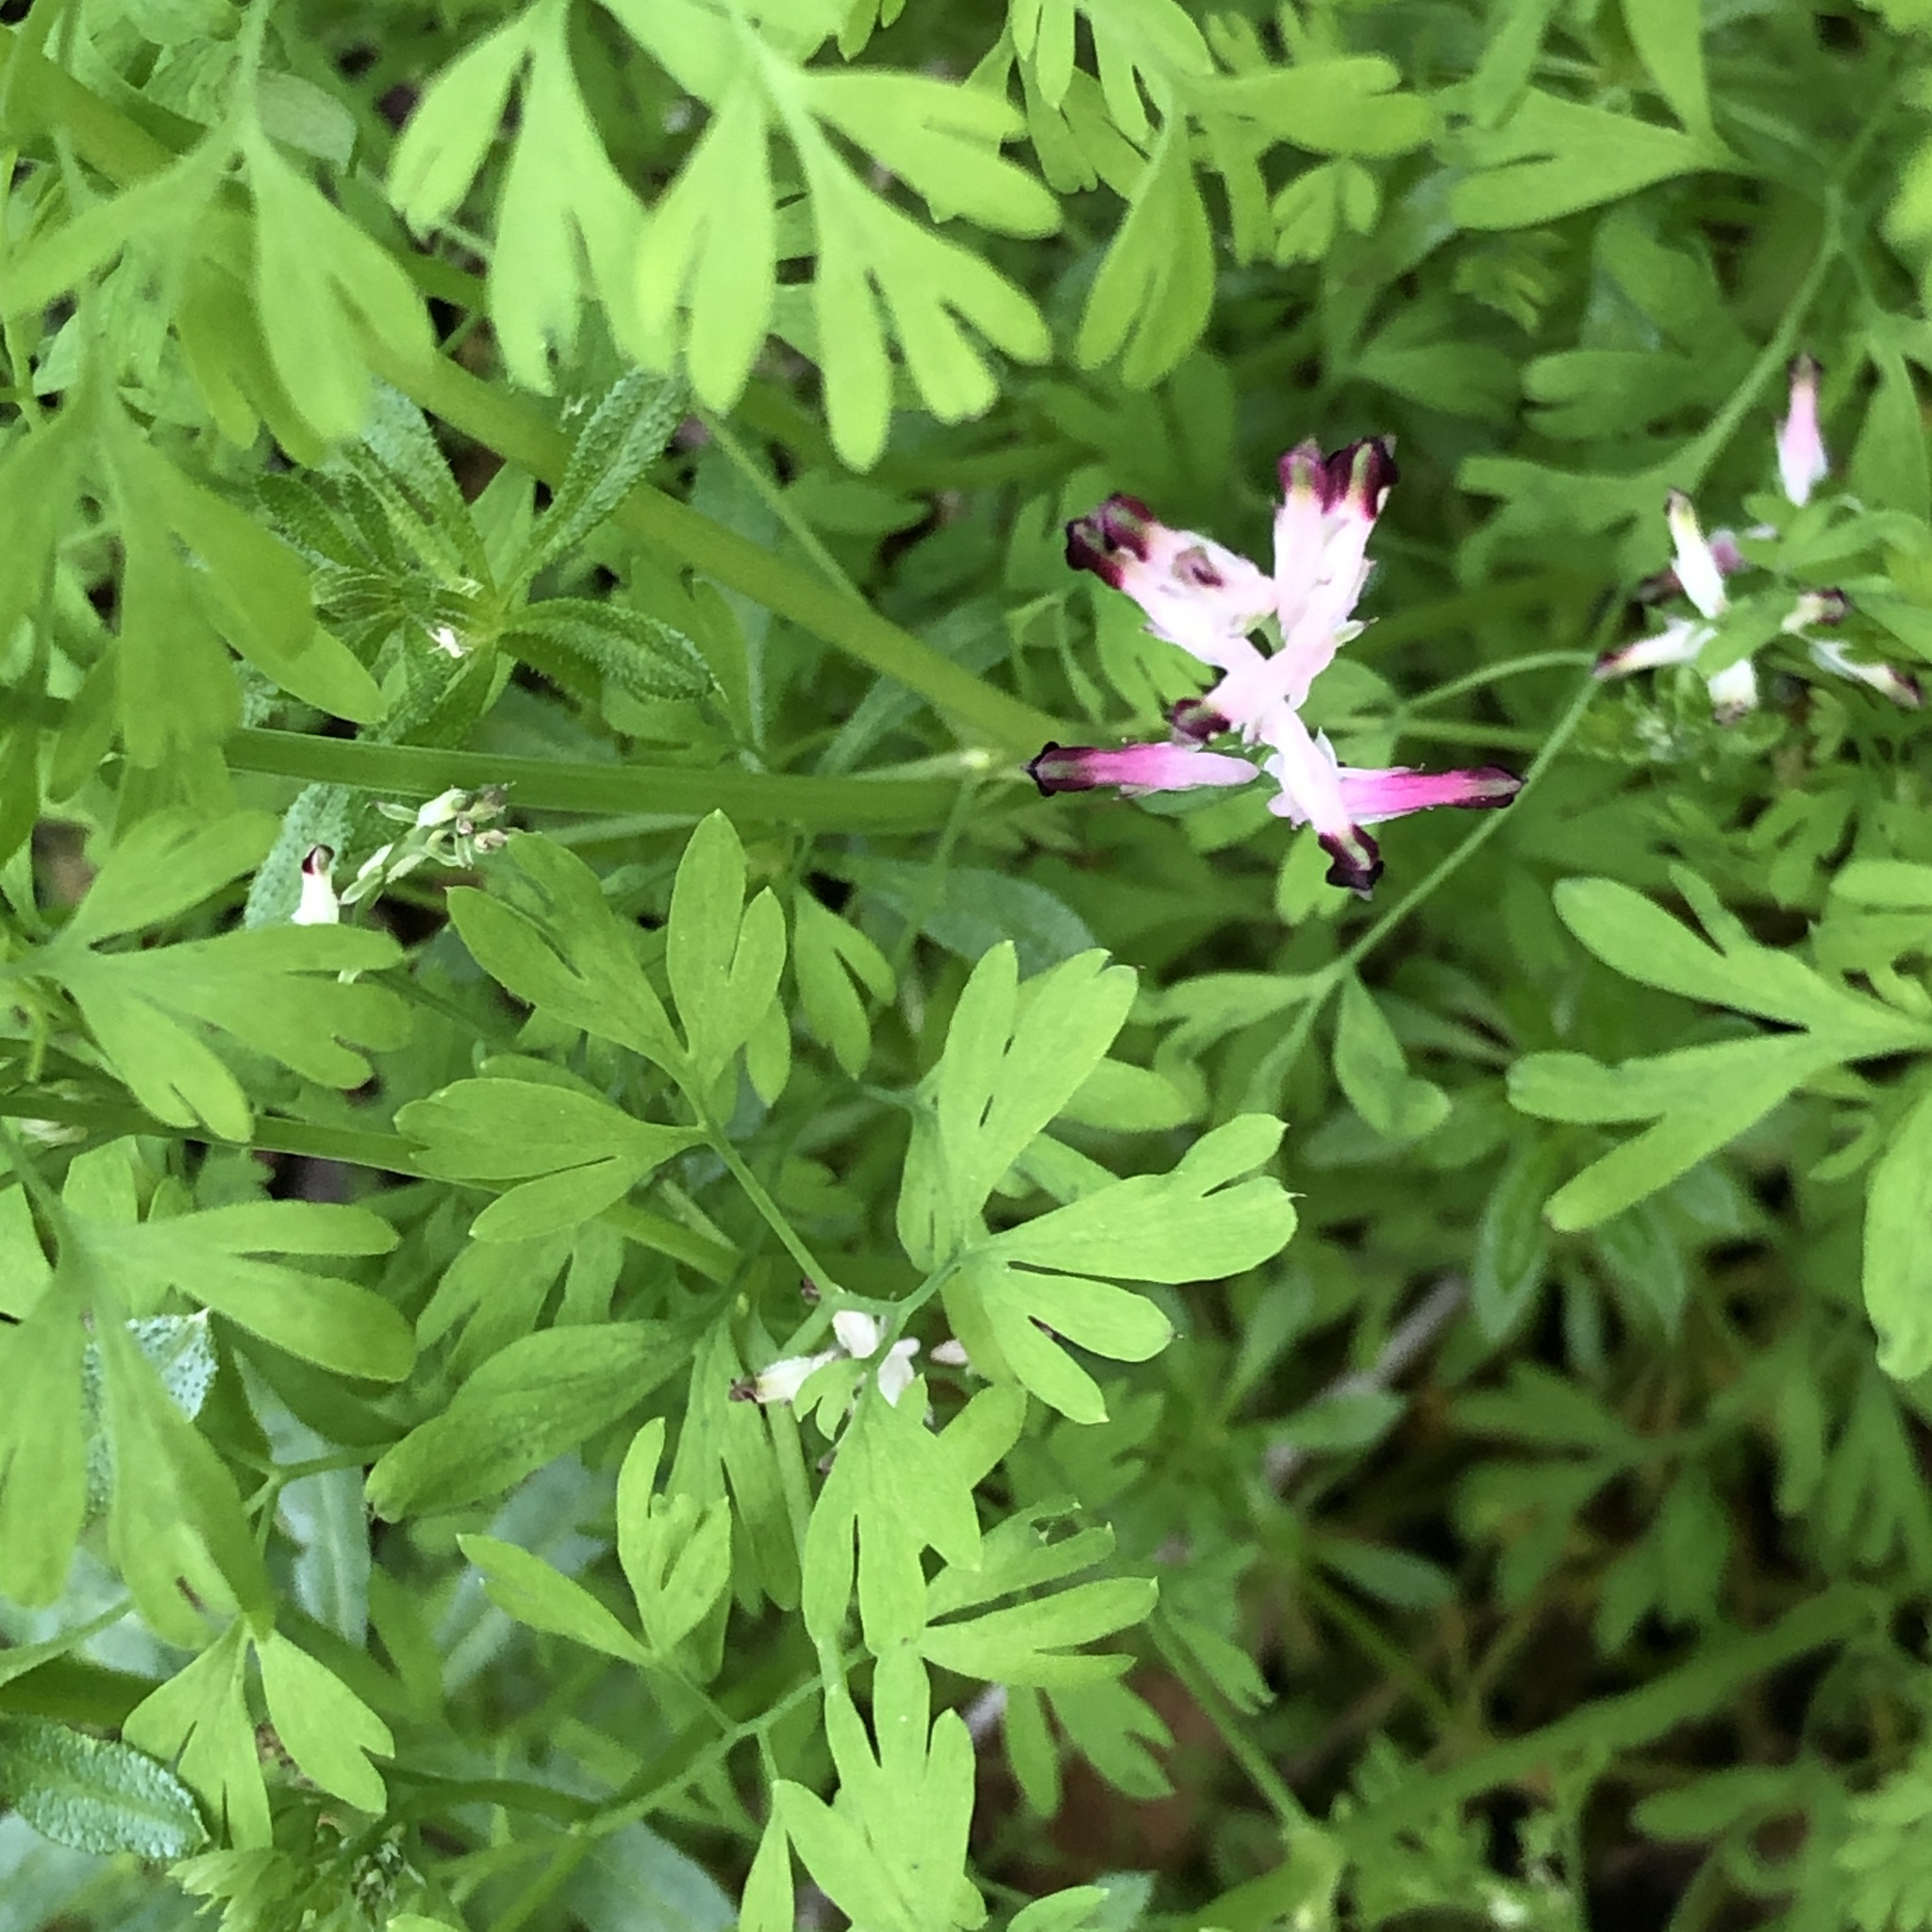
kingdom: Plantae
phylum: Tracheophyta
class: Magnoliopsida
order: Ranunculales
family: Papaveraceae
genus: Fumaria
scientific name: Fumaria muralis
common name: Common ramping-fumitory
